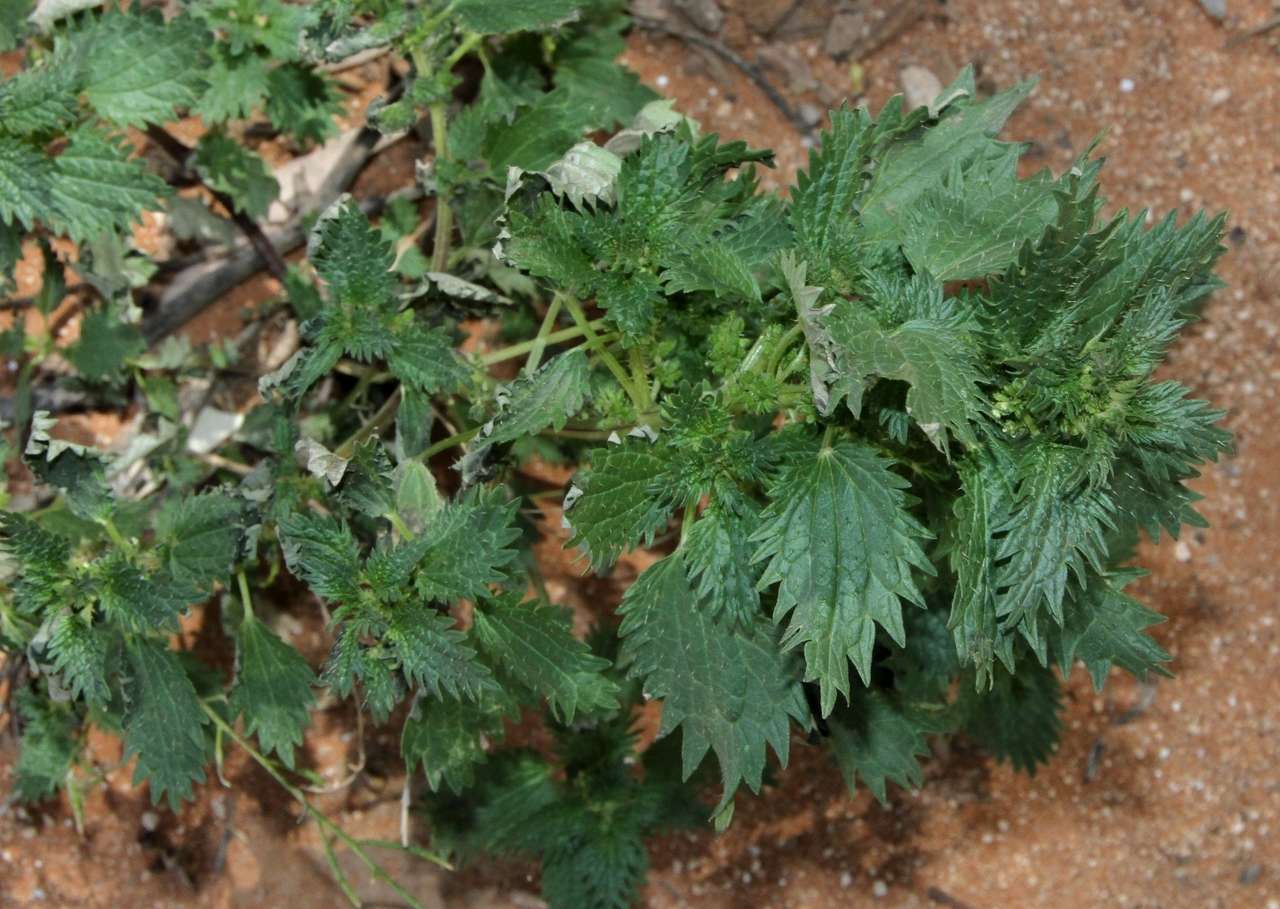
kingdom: Plantae
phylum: Tracheophyta
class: Magnoliopsida
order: Rosales
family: Urticaceae
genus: Urtica
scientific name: Urtica urens
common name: Dwarf nettle
